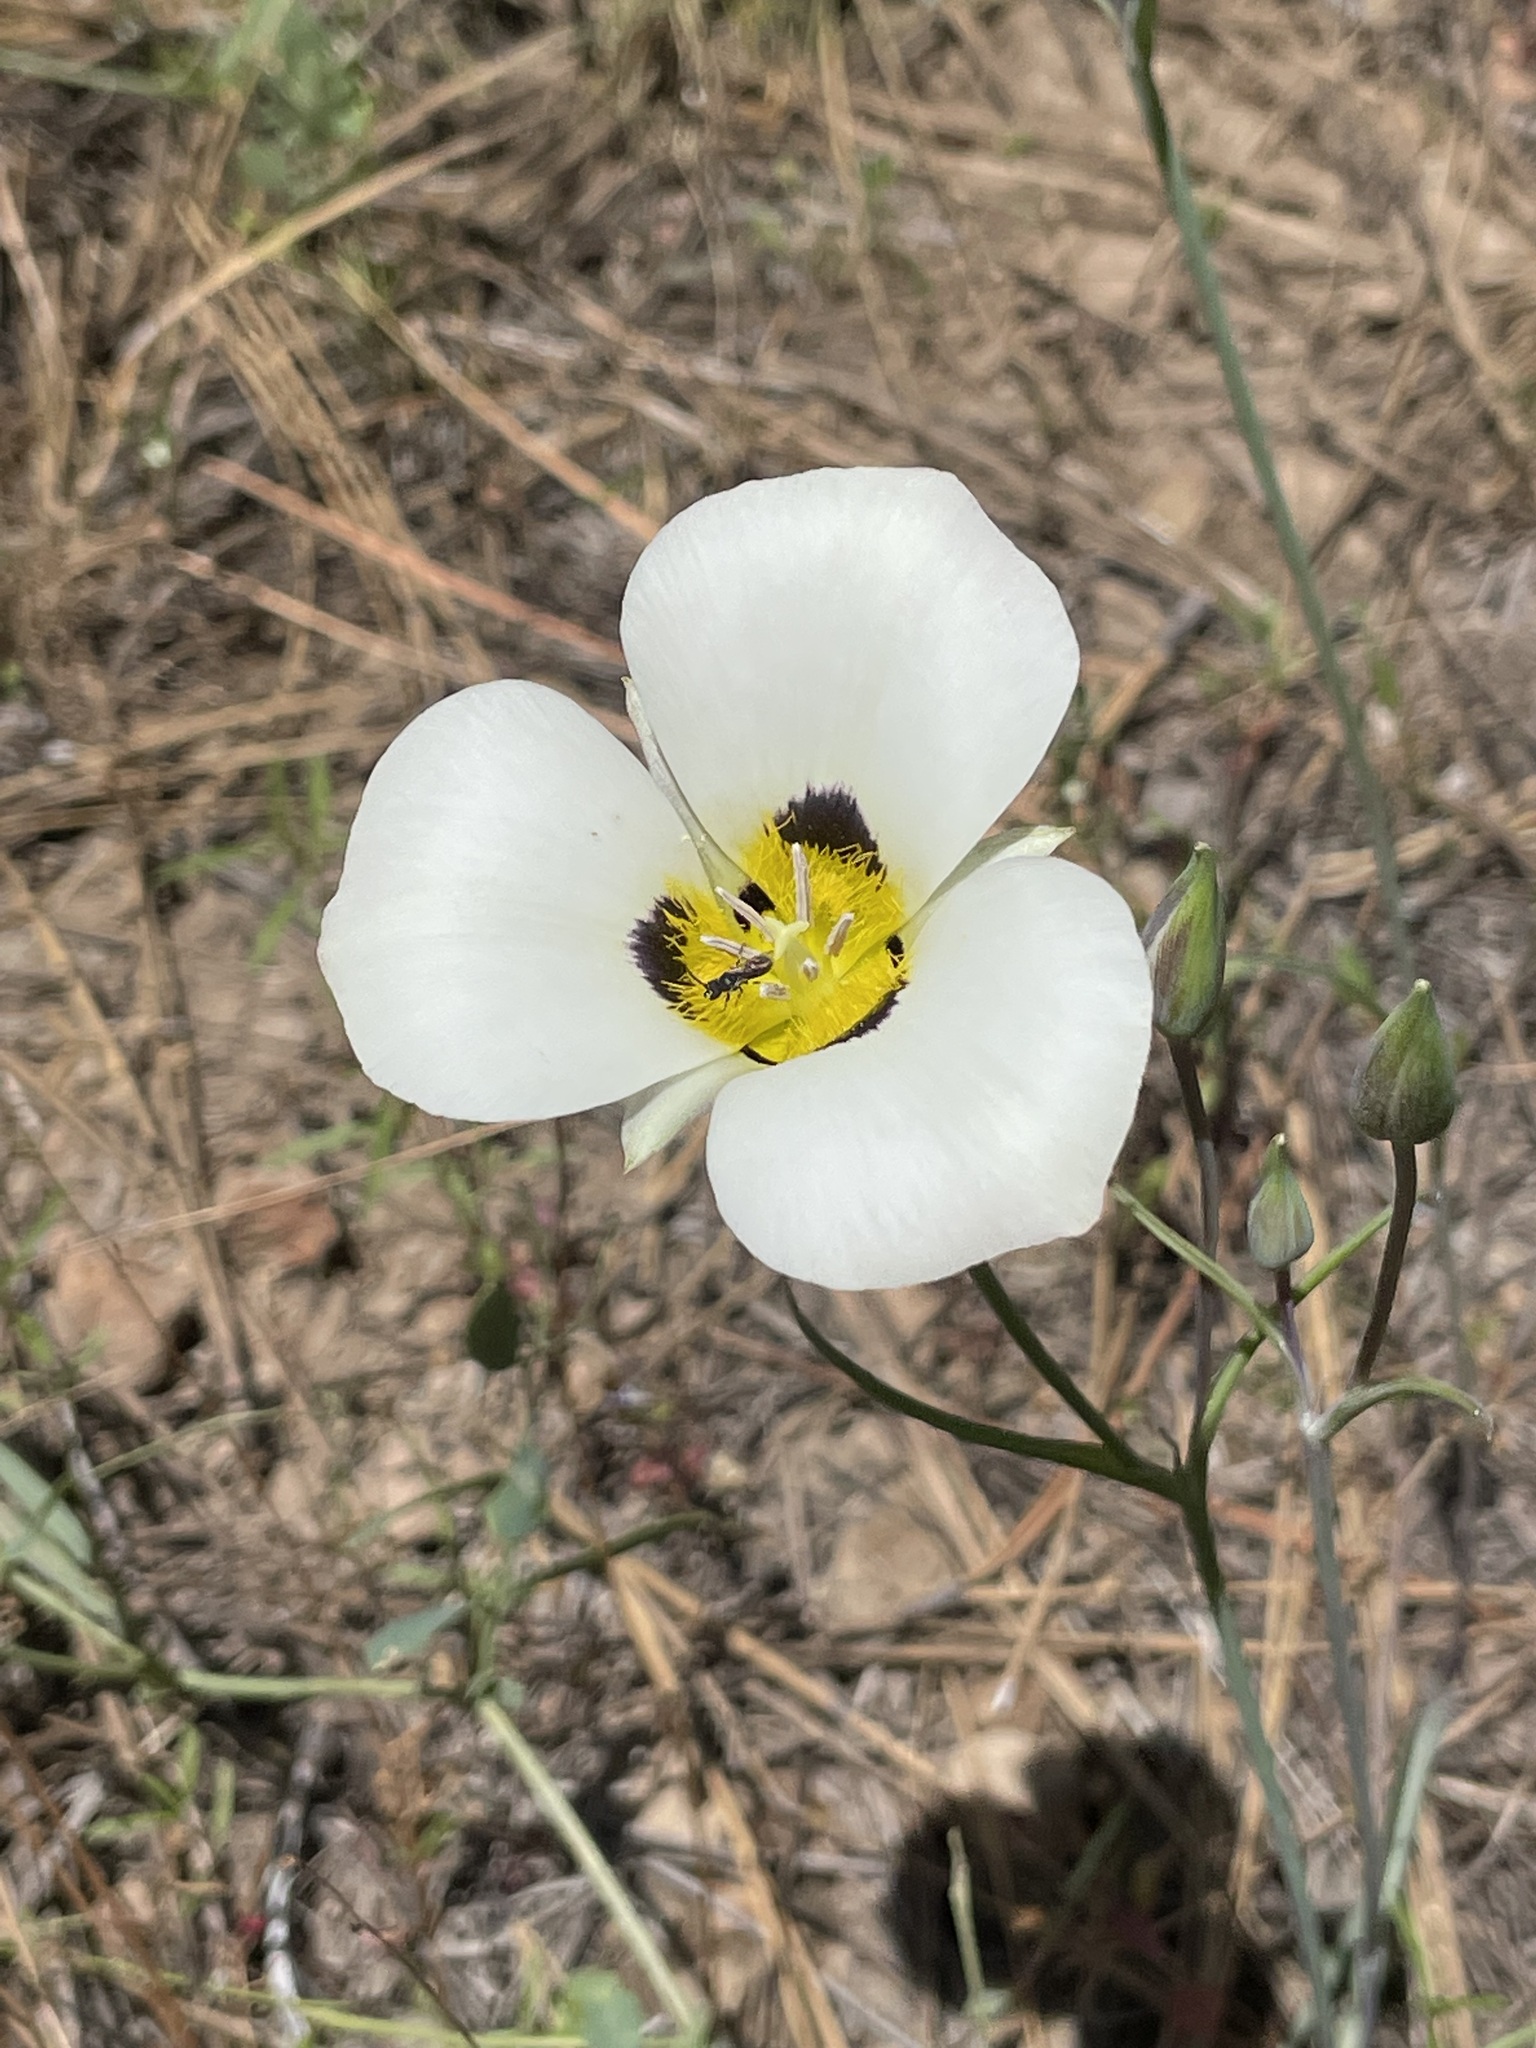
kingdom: Plantae
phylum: Tracheophyta
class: Liliopsida
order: Liliales
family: Liliaceae
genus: Calochortus
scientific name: Calochortus leichtlinii
